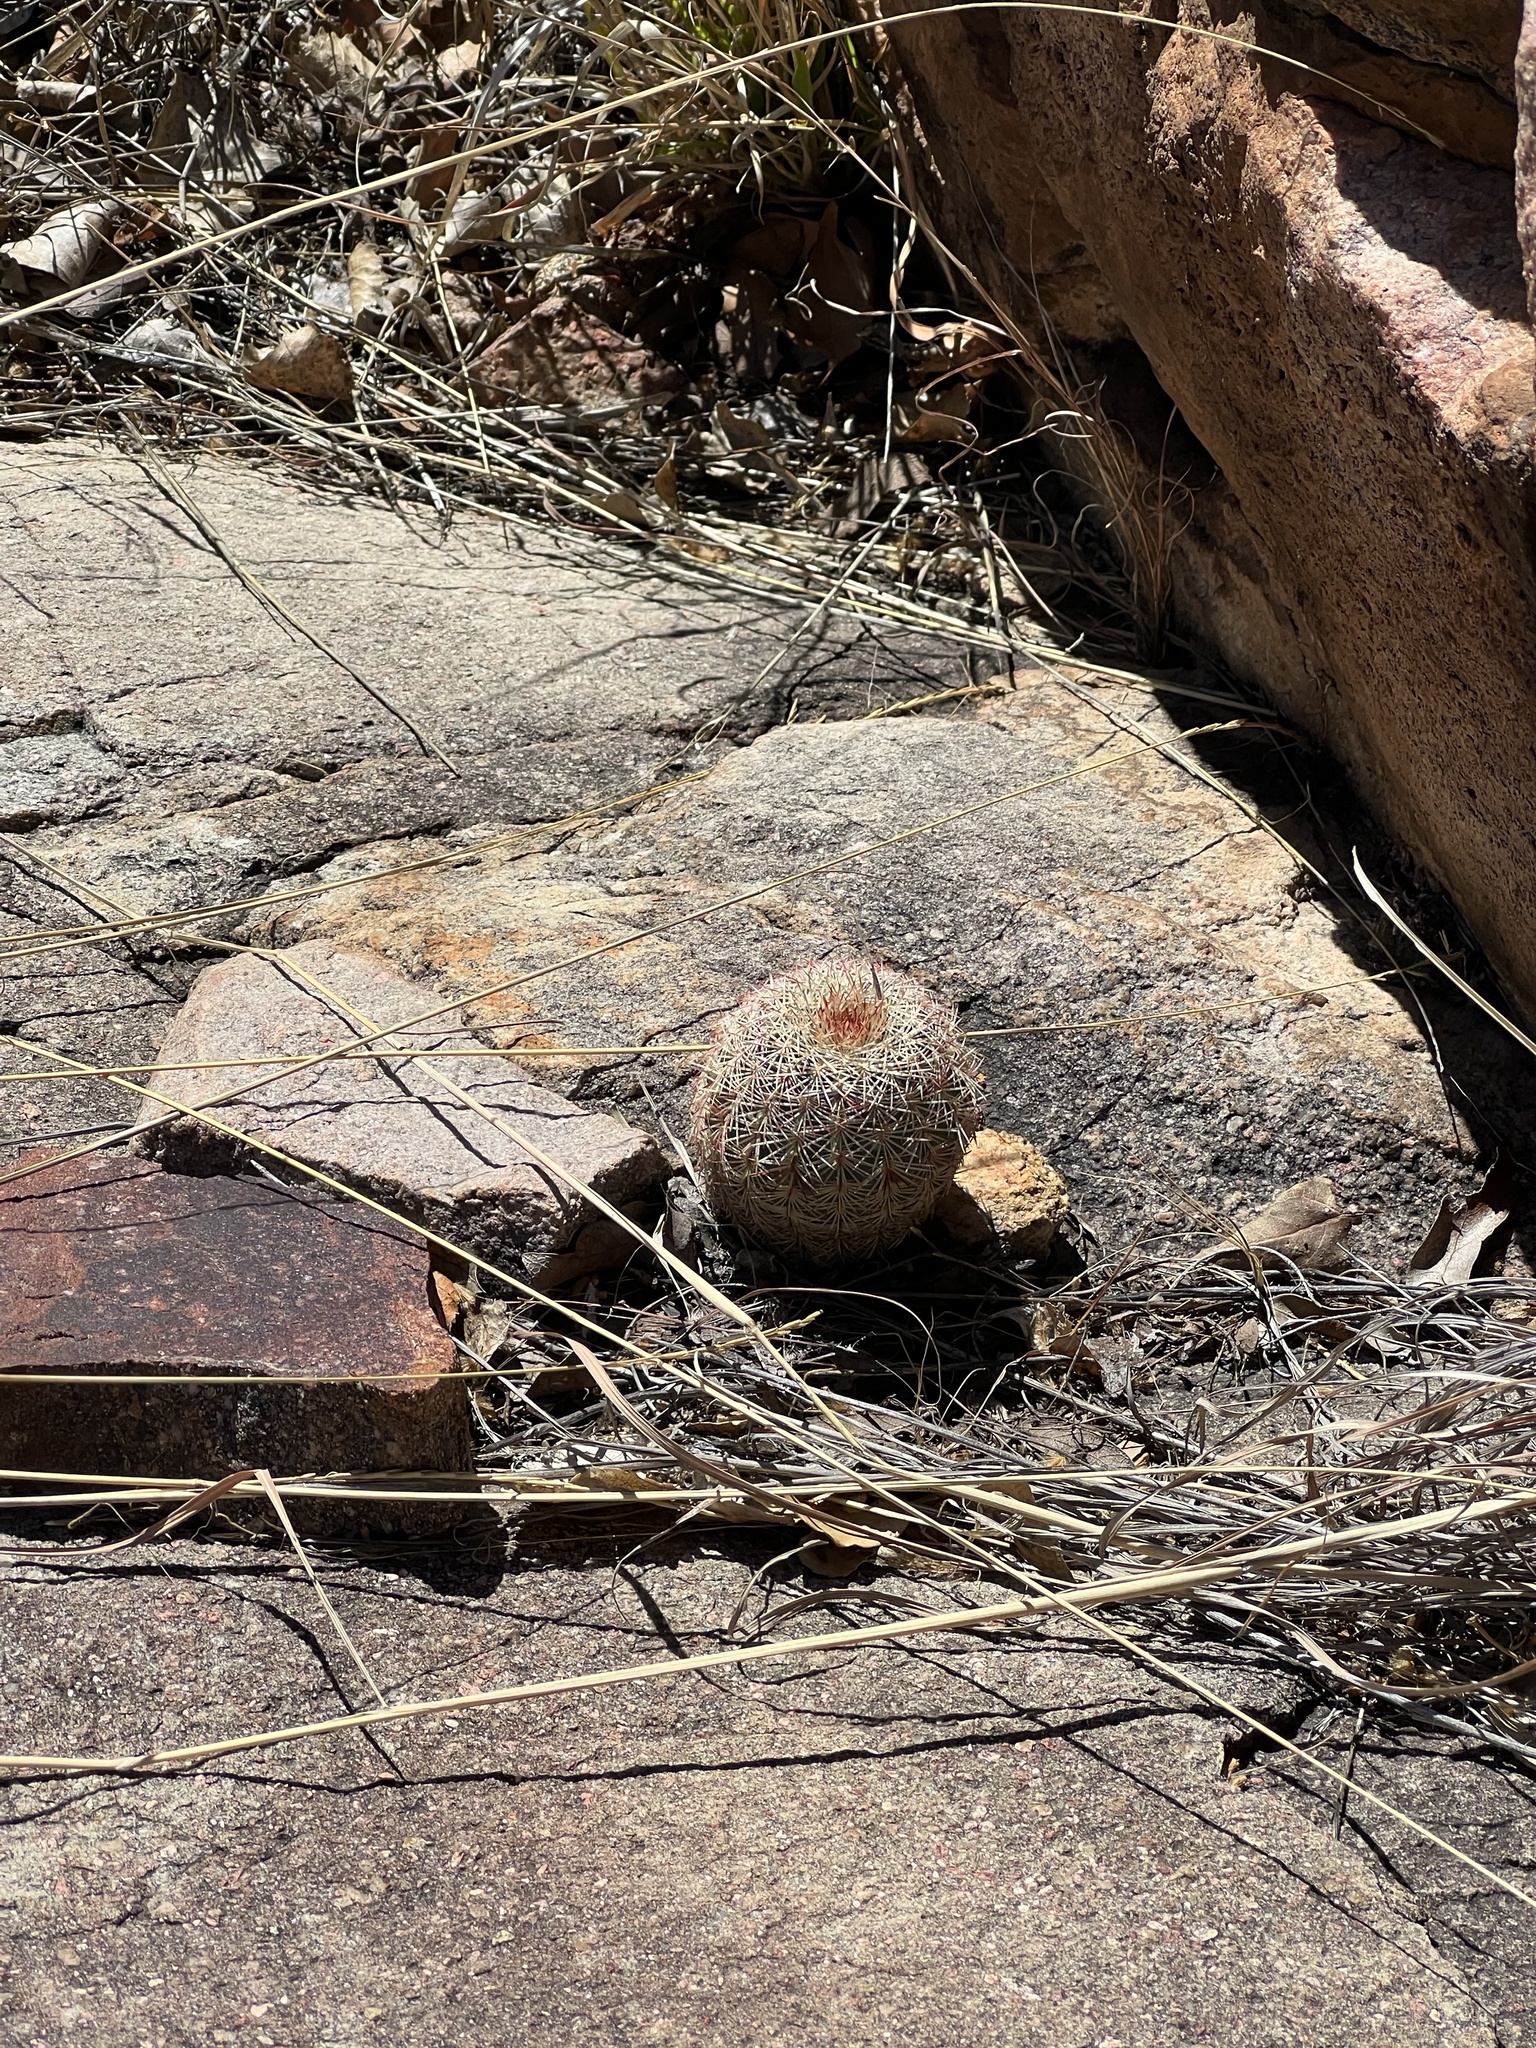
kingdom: Plantae
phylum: Tracheophyta
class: Magnoliopsida
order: Caryophyllales
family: Cactaceae
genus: Echinocereus
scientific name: Echinocereus rigidissimus
